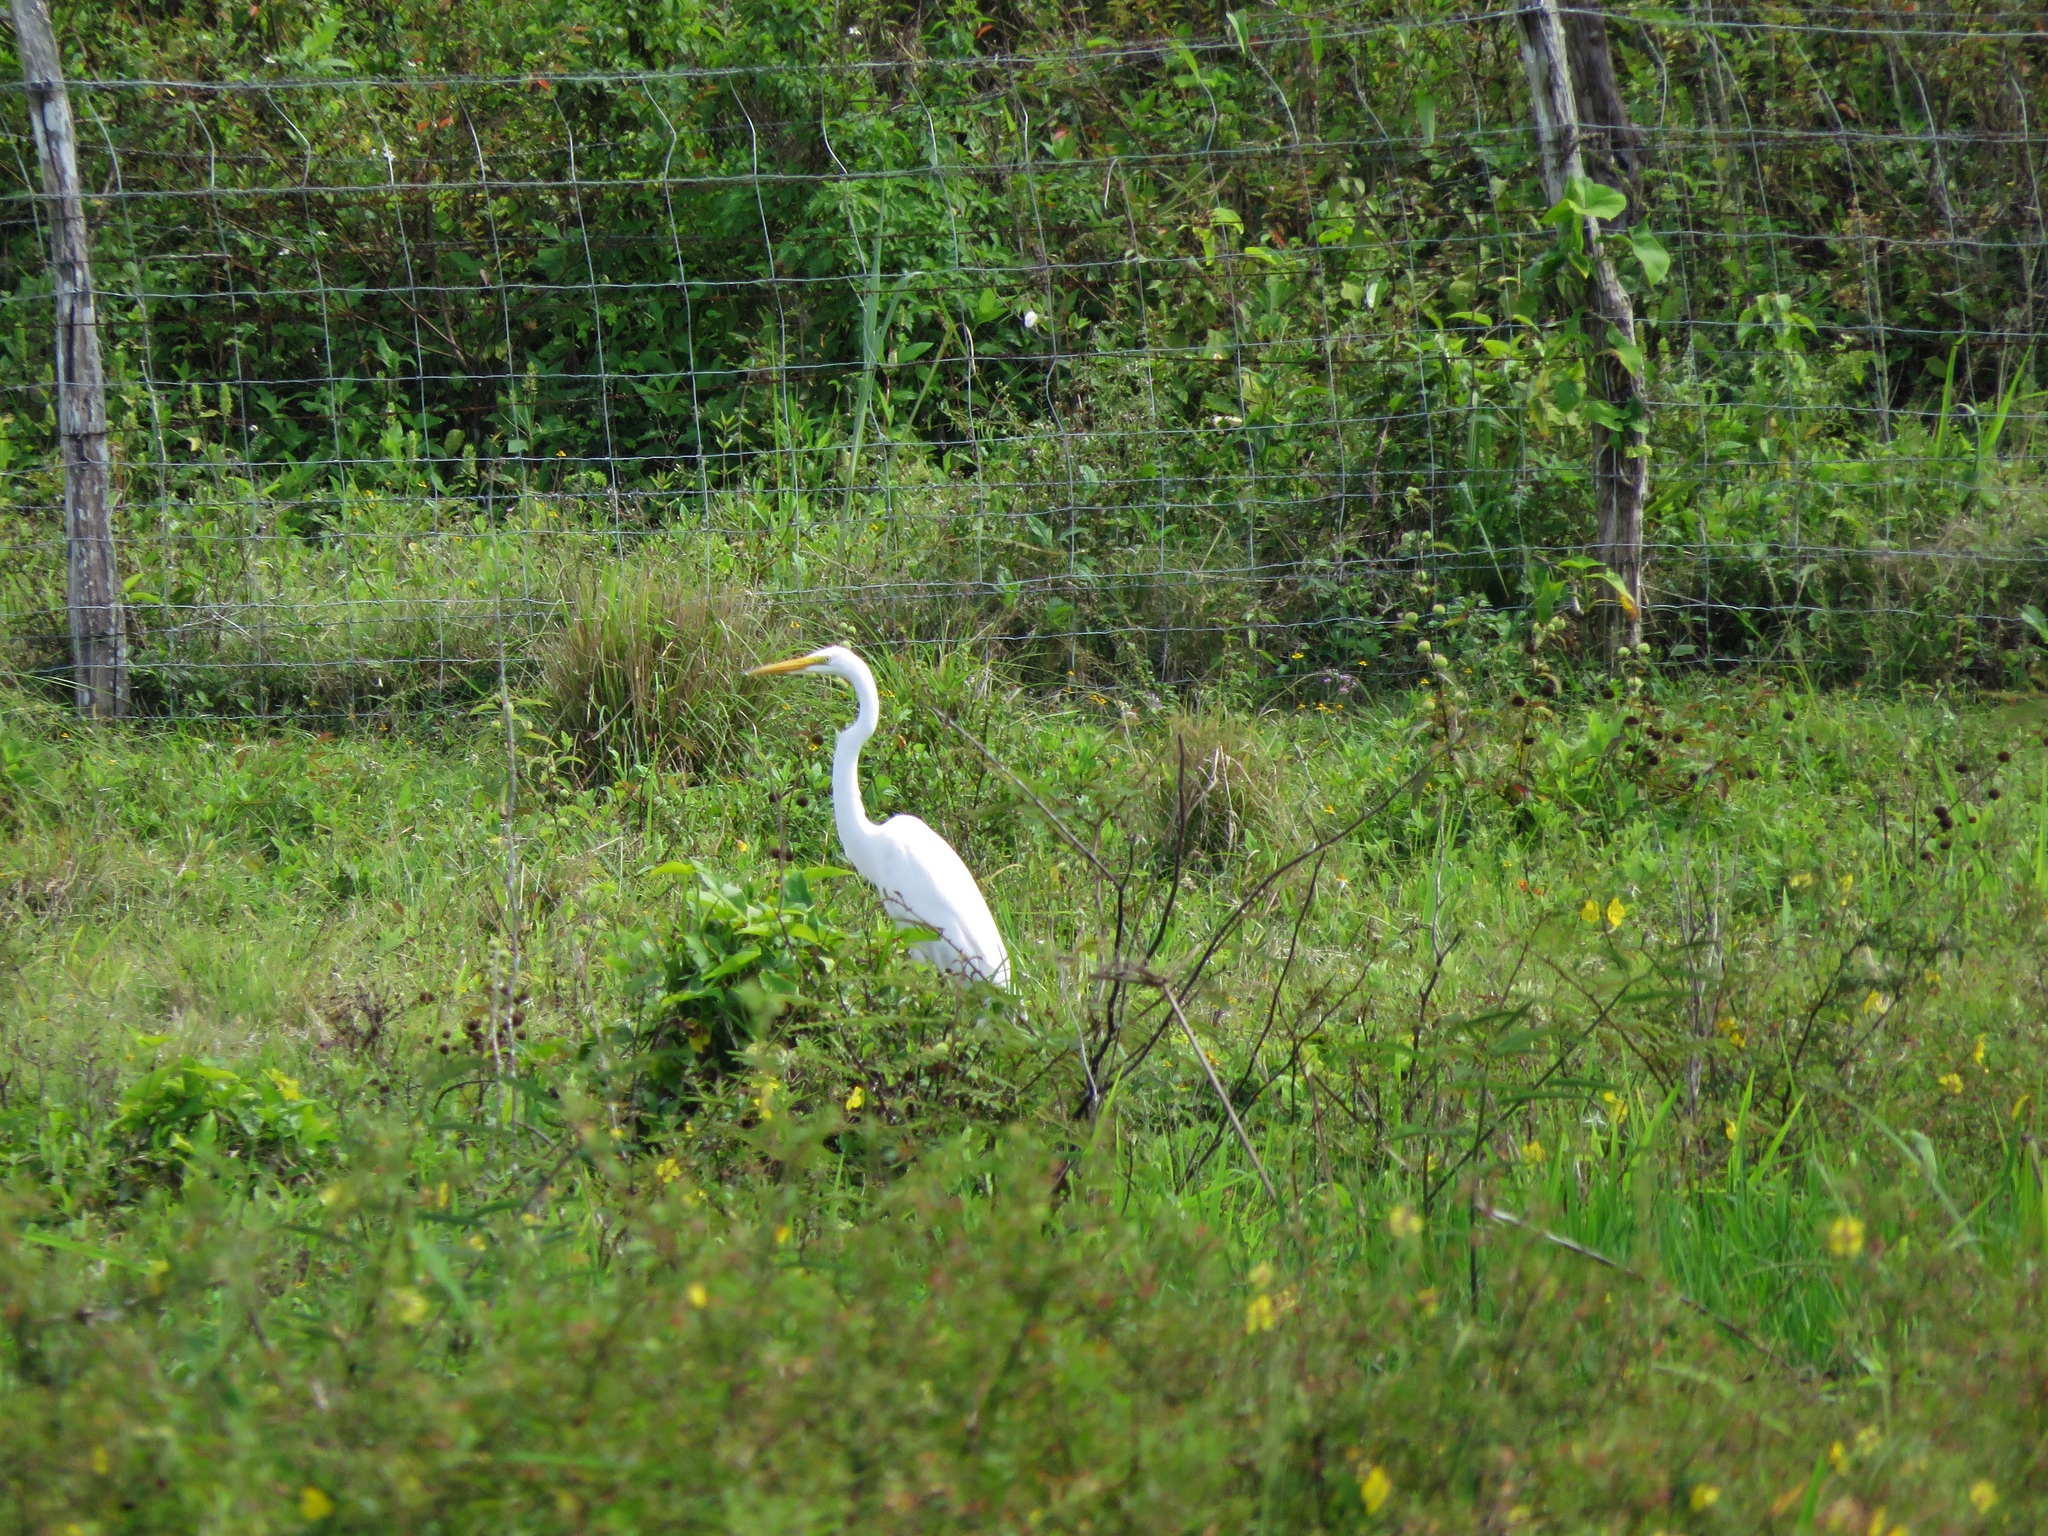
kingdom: Animalia
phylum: Chordata
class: Aves
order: Pelecaniformes
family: Ardeidae
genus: Ardea
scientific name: Ardea alba
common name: Great egret
